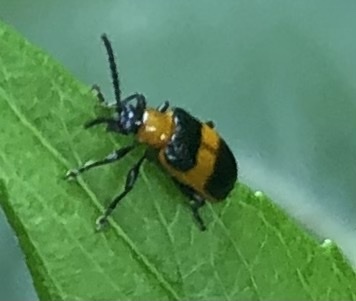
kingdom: Animalia
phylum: Arthropoda
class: Insecta
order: Coleoptera
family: Chrysomelidae
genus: Lema
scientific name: Lema solani
